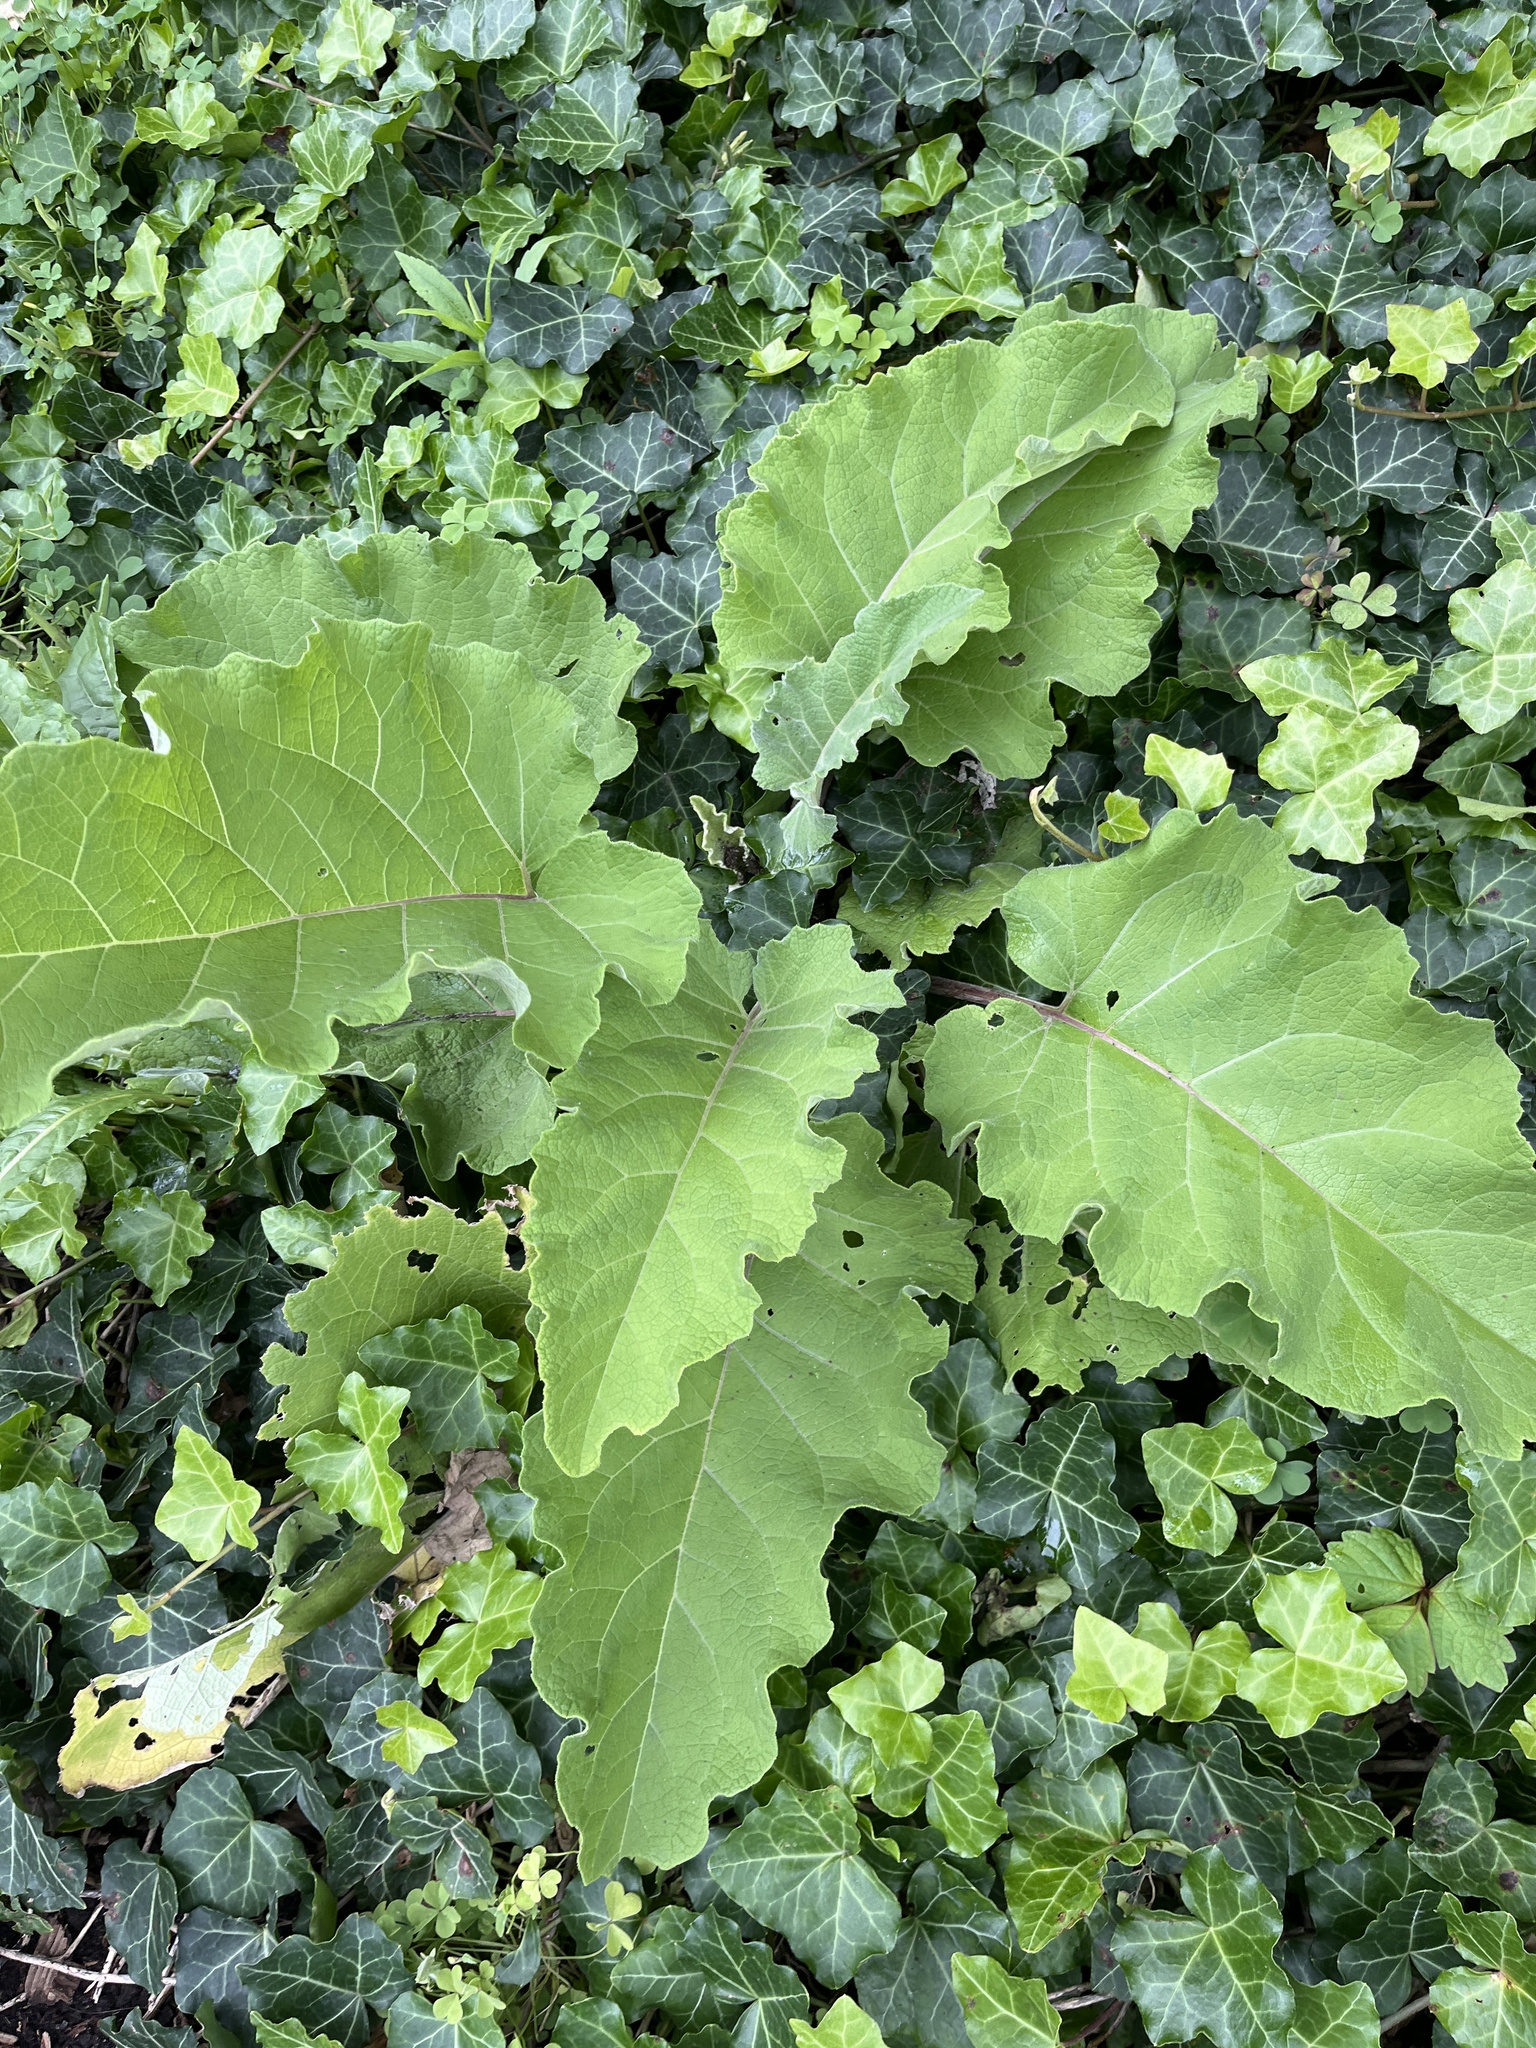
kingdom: Plantae
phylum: Tracheophyta
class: Magnoliopsida
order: Asterales
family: Asteraceae
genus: Arctium
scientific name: Arctium
